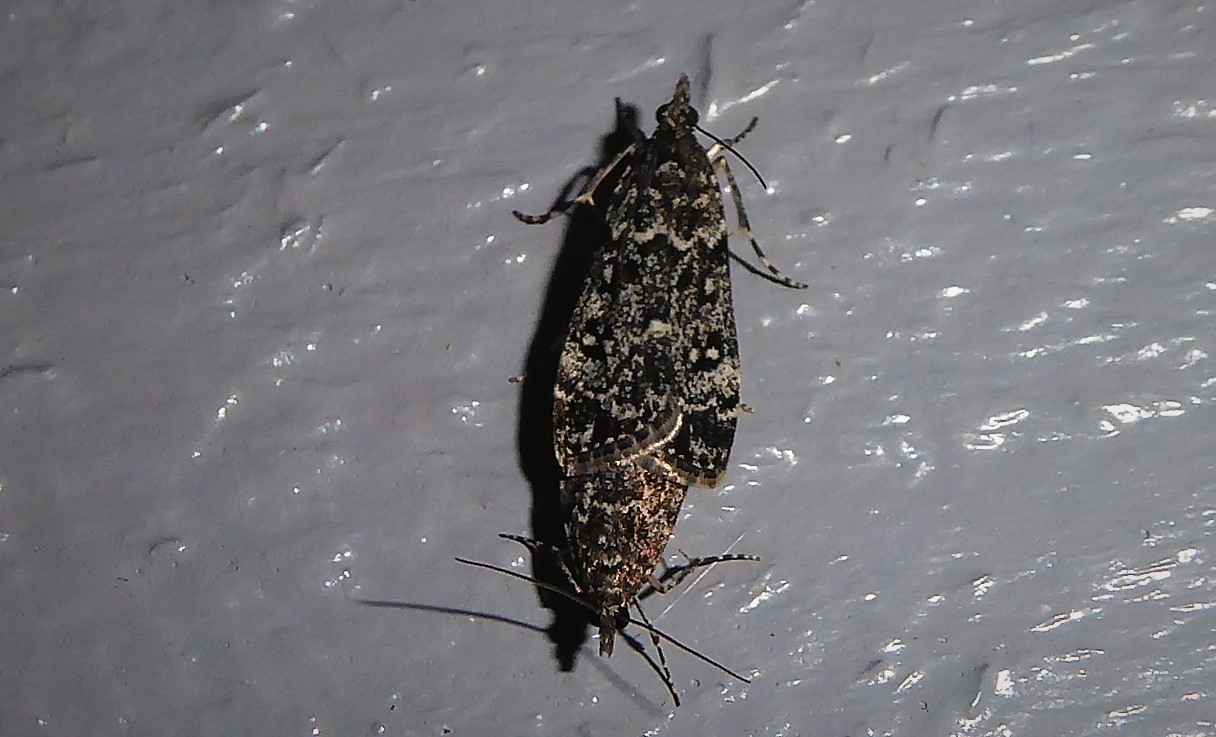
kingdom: Animalia
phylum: Arthropoda
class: Insecta
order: Lepidoptera
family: Crambidae
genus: Eudonia
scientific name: Eudonia philerga
